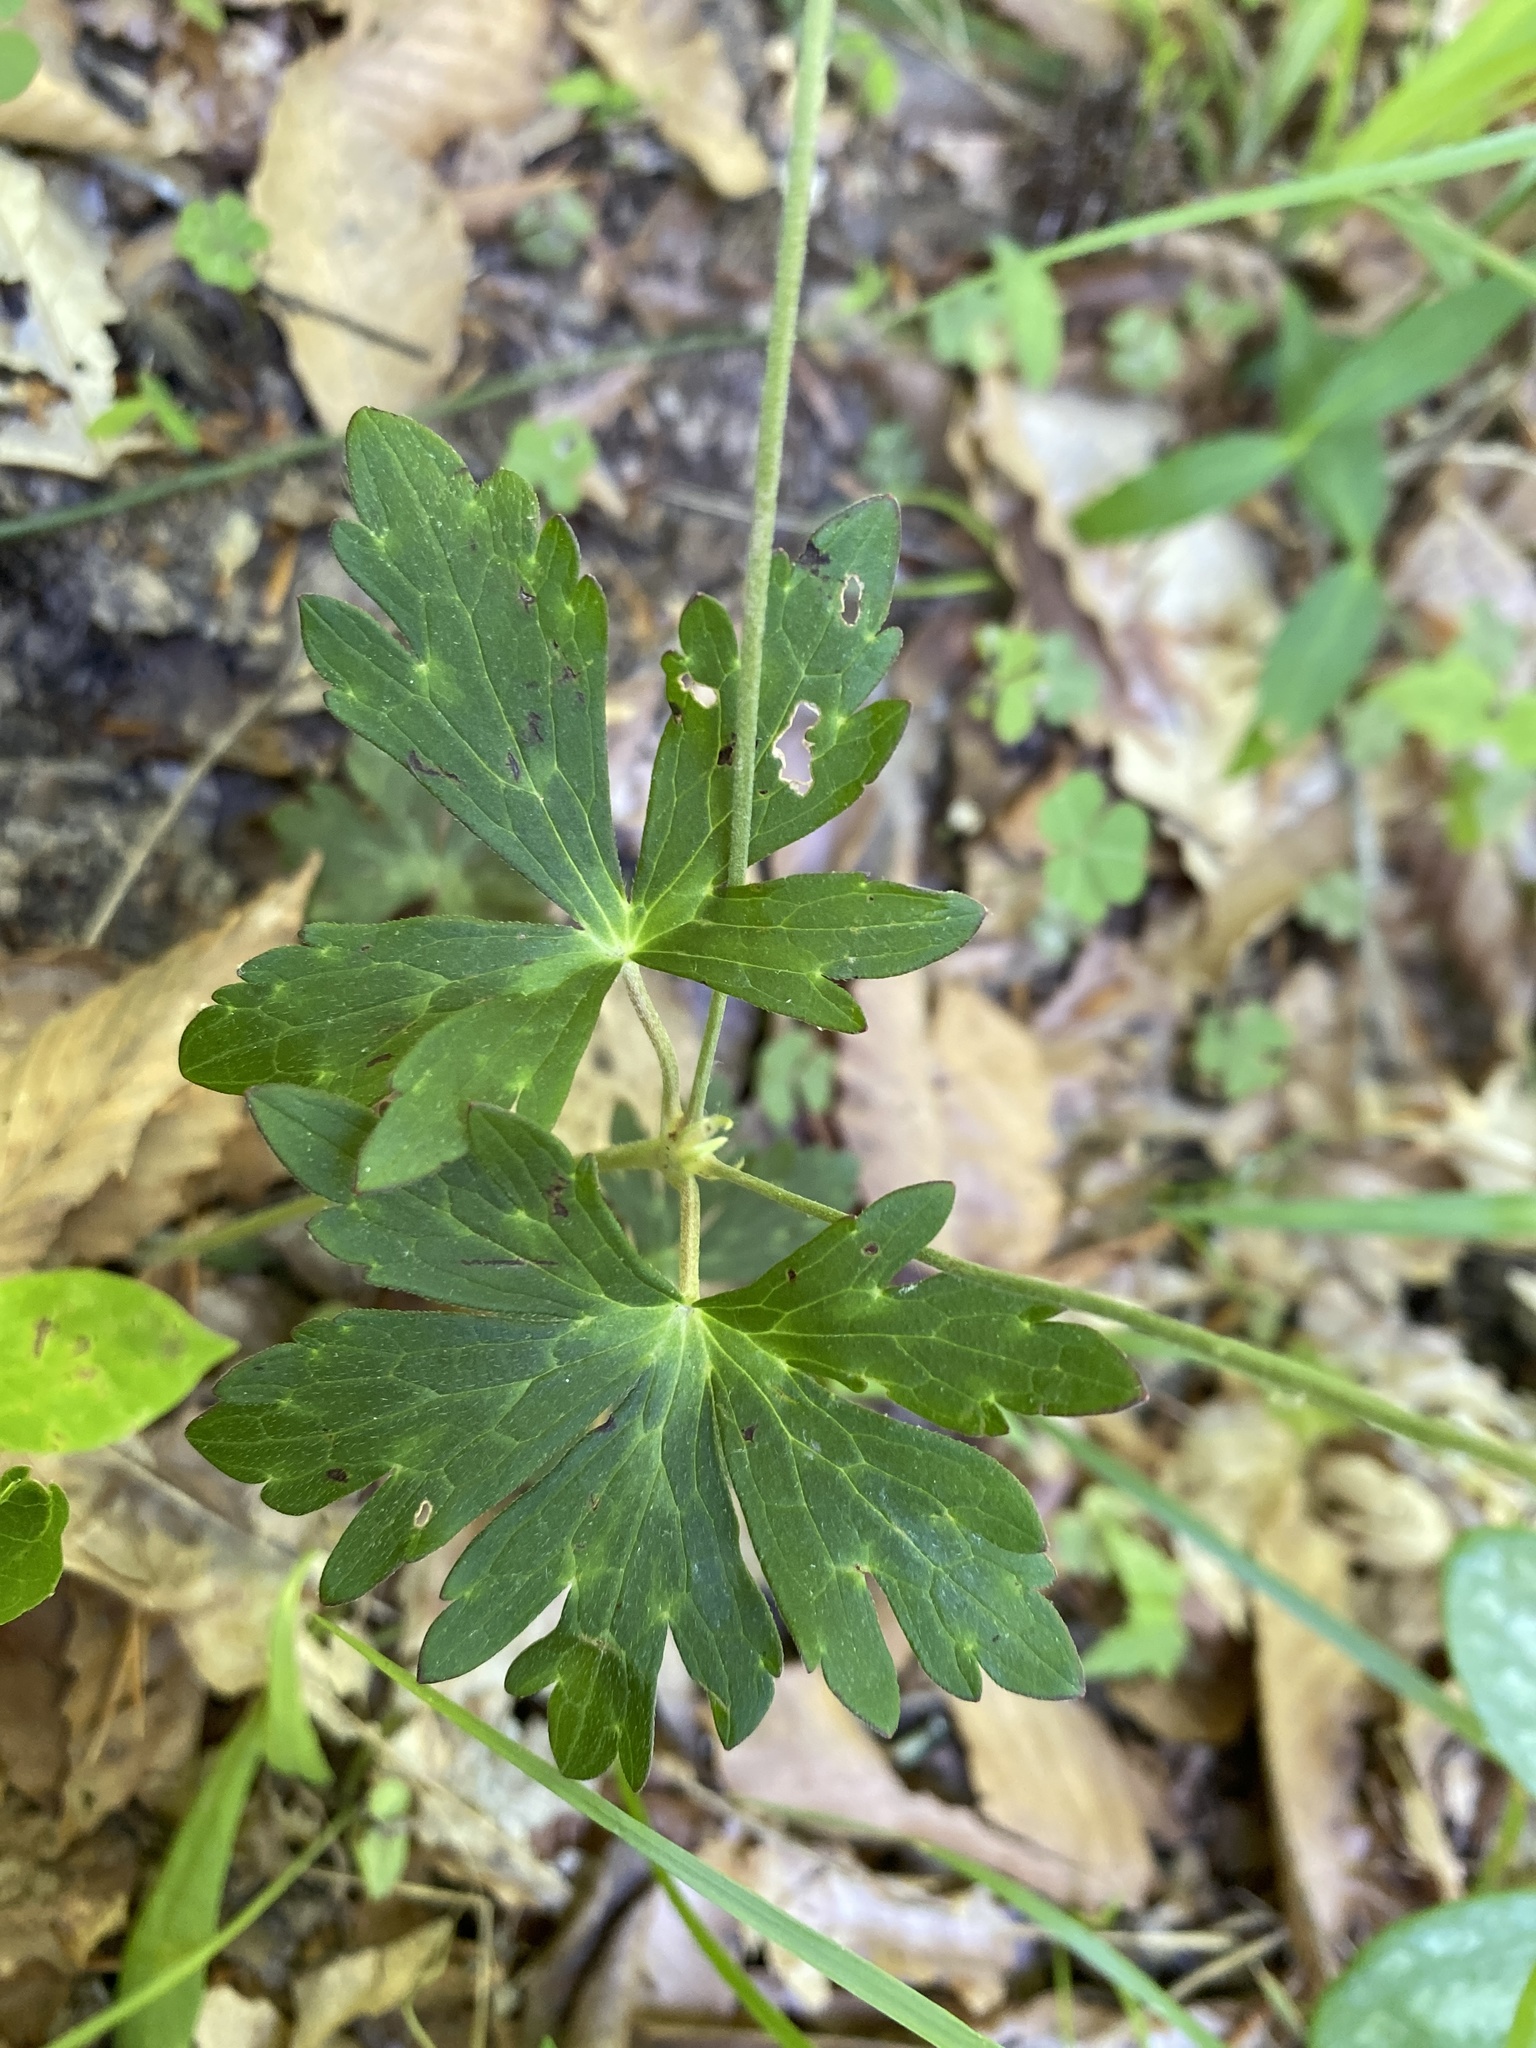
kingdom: Plantae
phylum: Tracheophyta
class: Magnoliopsida
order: Geraniales
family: Geraniaceae
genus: Geranium
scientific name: Geranium maculatum
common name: Spotted geranium
